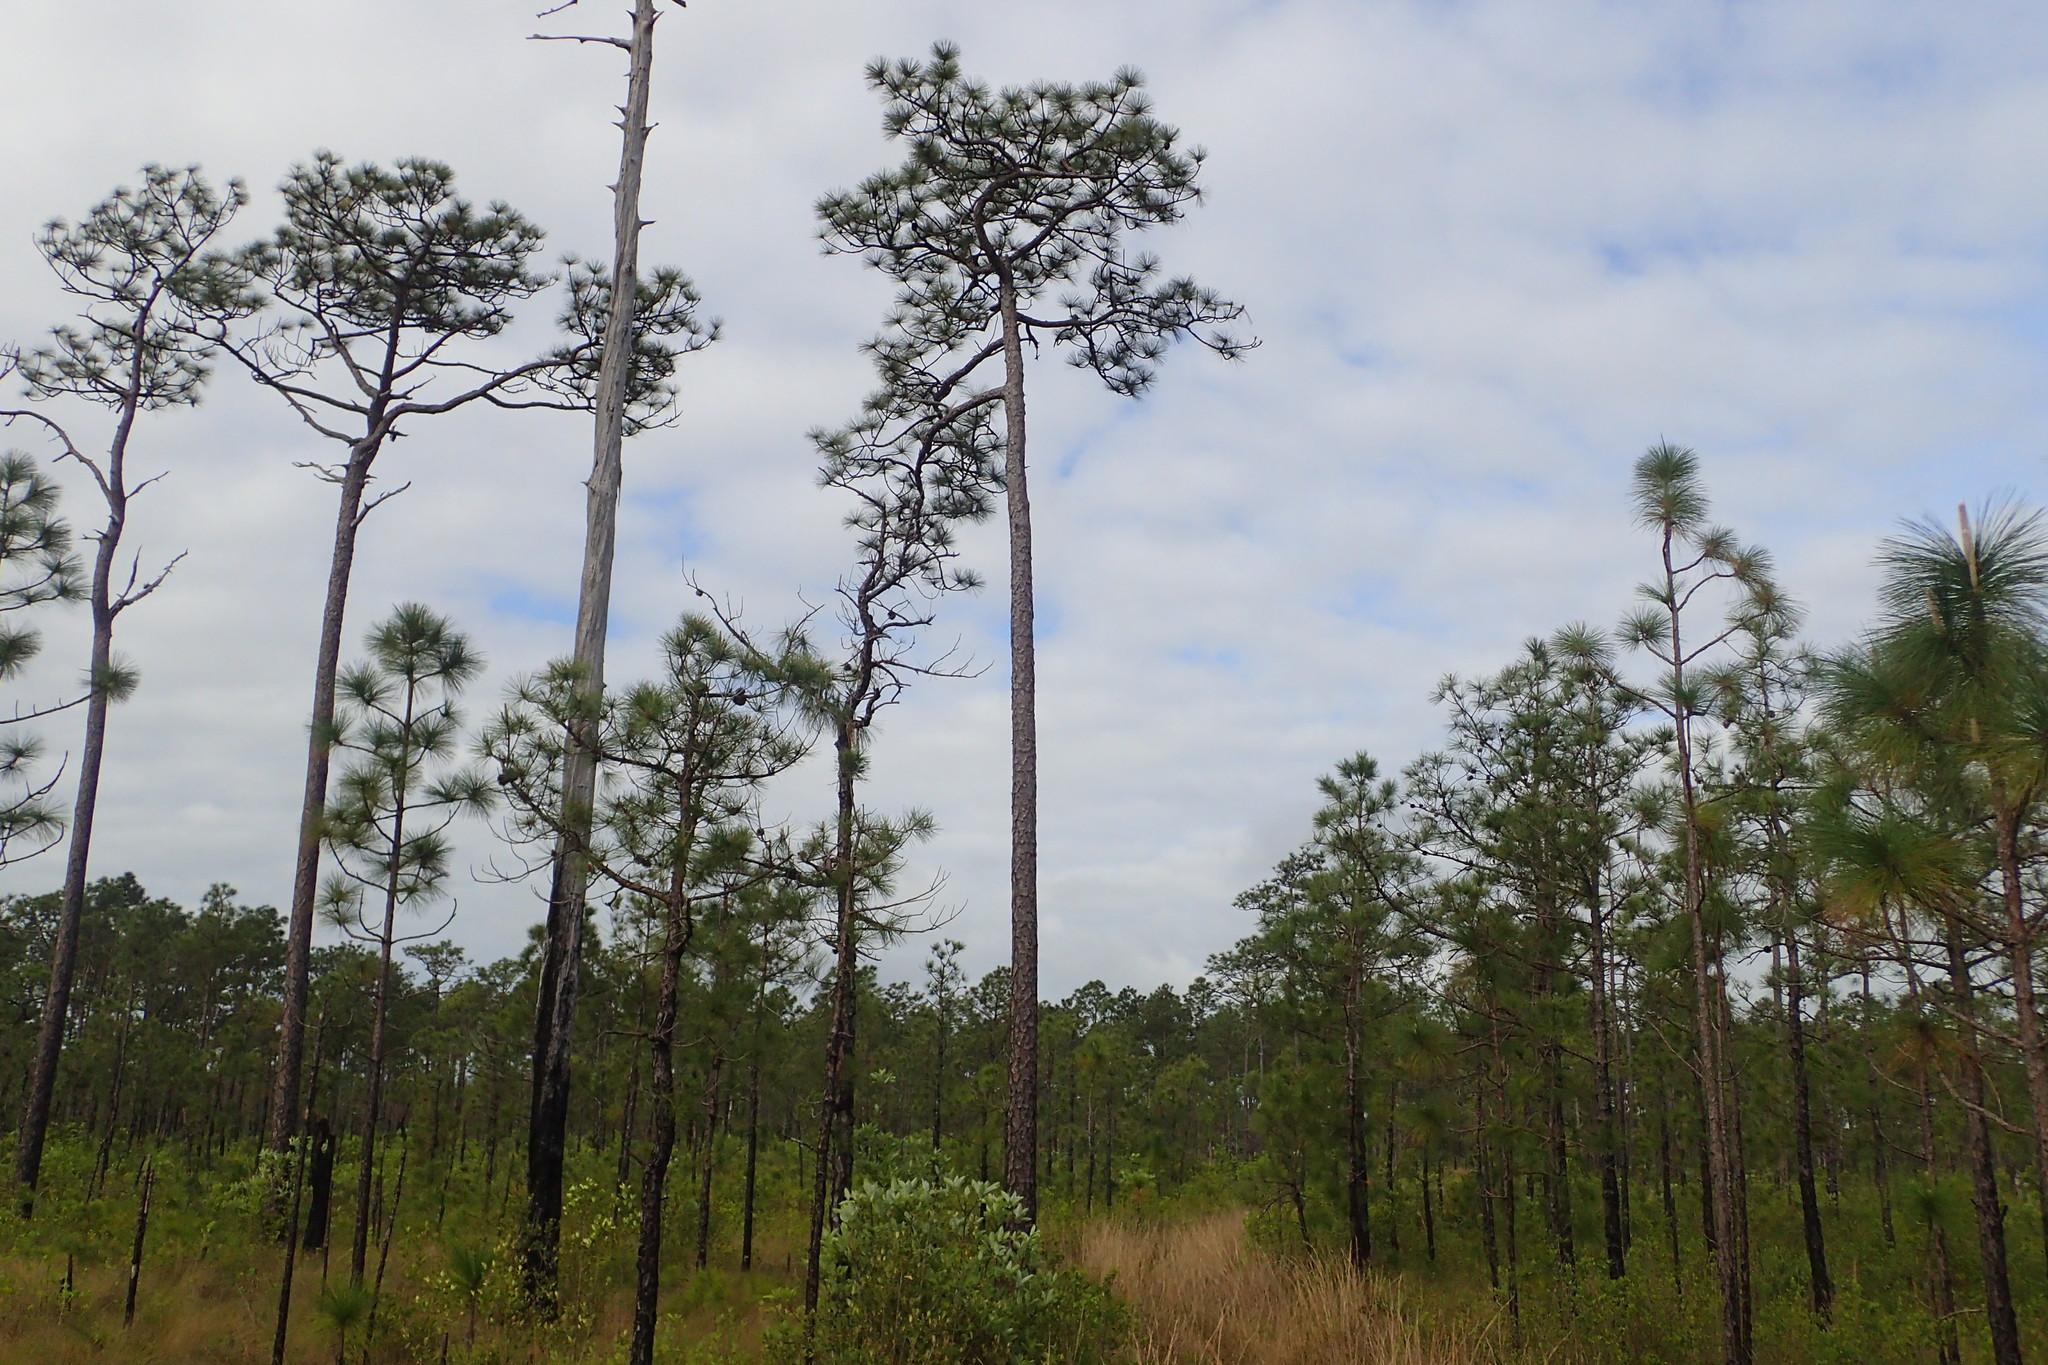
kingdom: Plantae
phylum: Tracheophyta
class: Pinopsida
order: Pinales
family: Pinaceae
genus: Pinus
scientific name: Pinus palustris
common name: Longleaf pine
